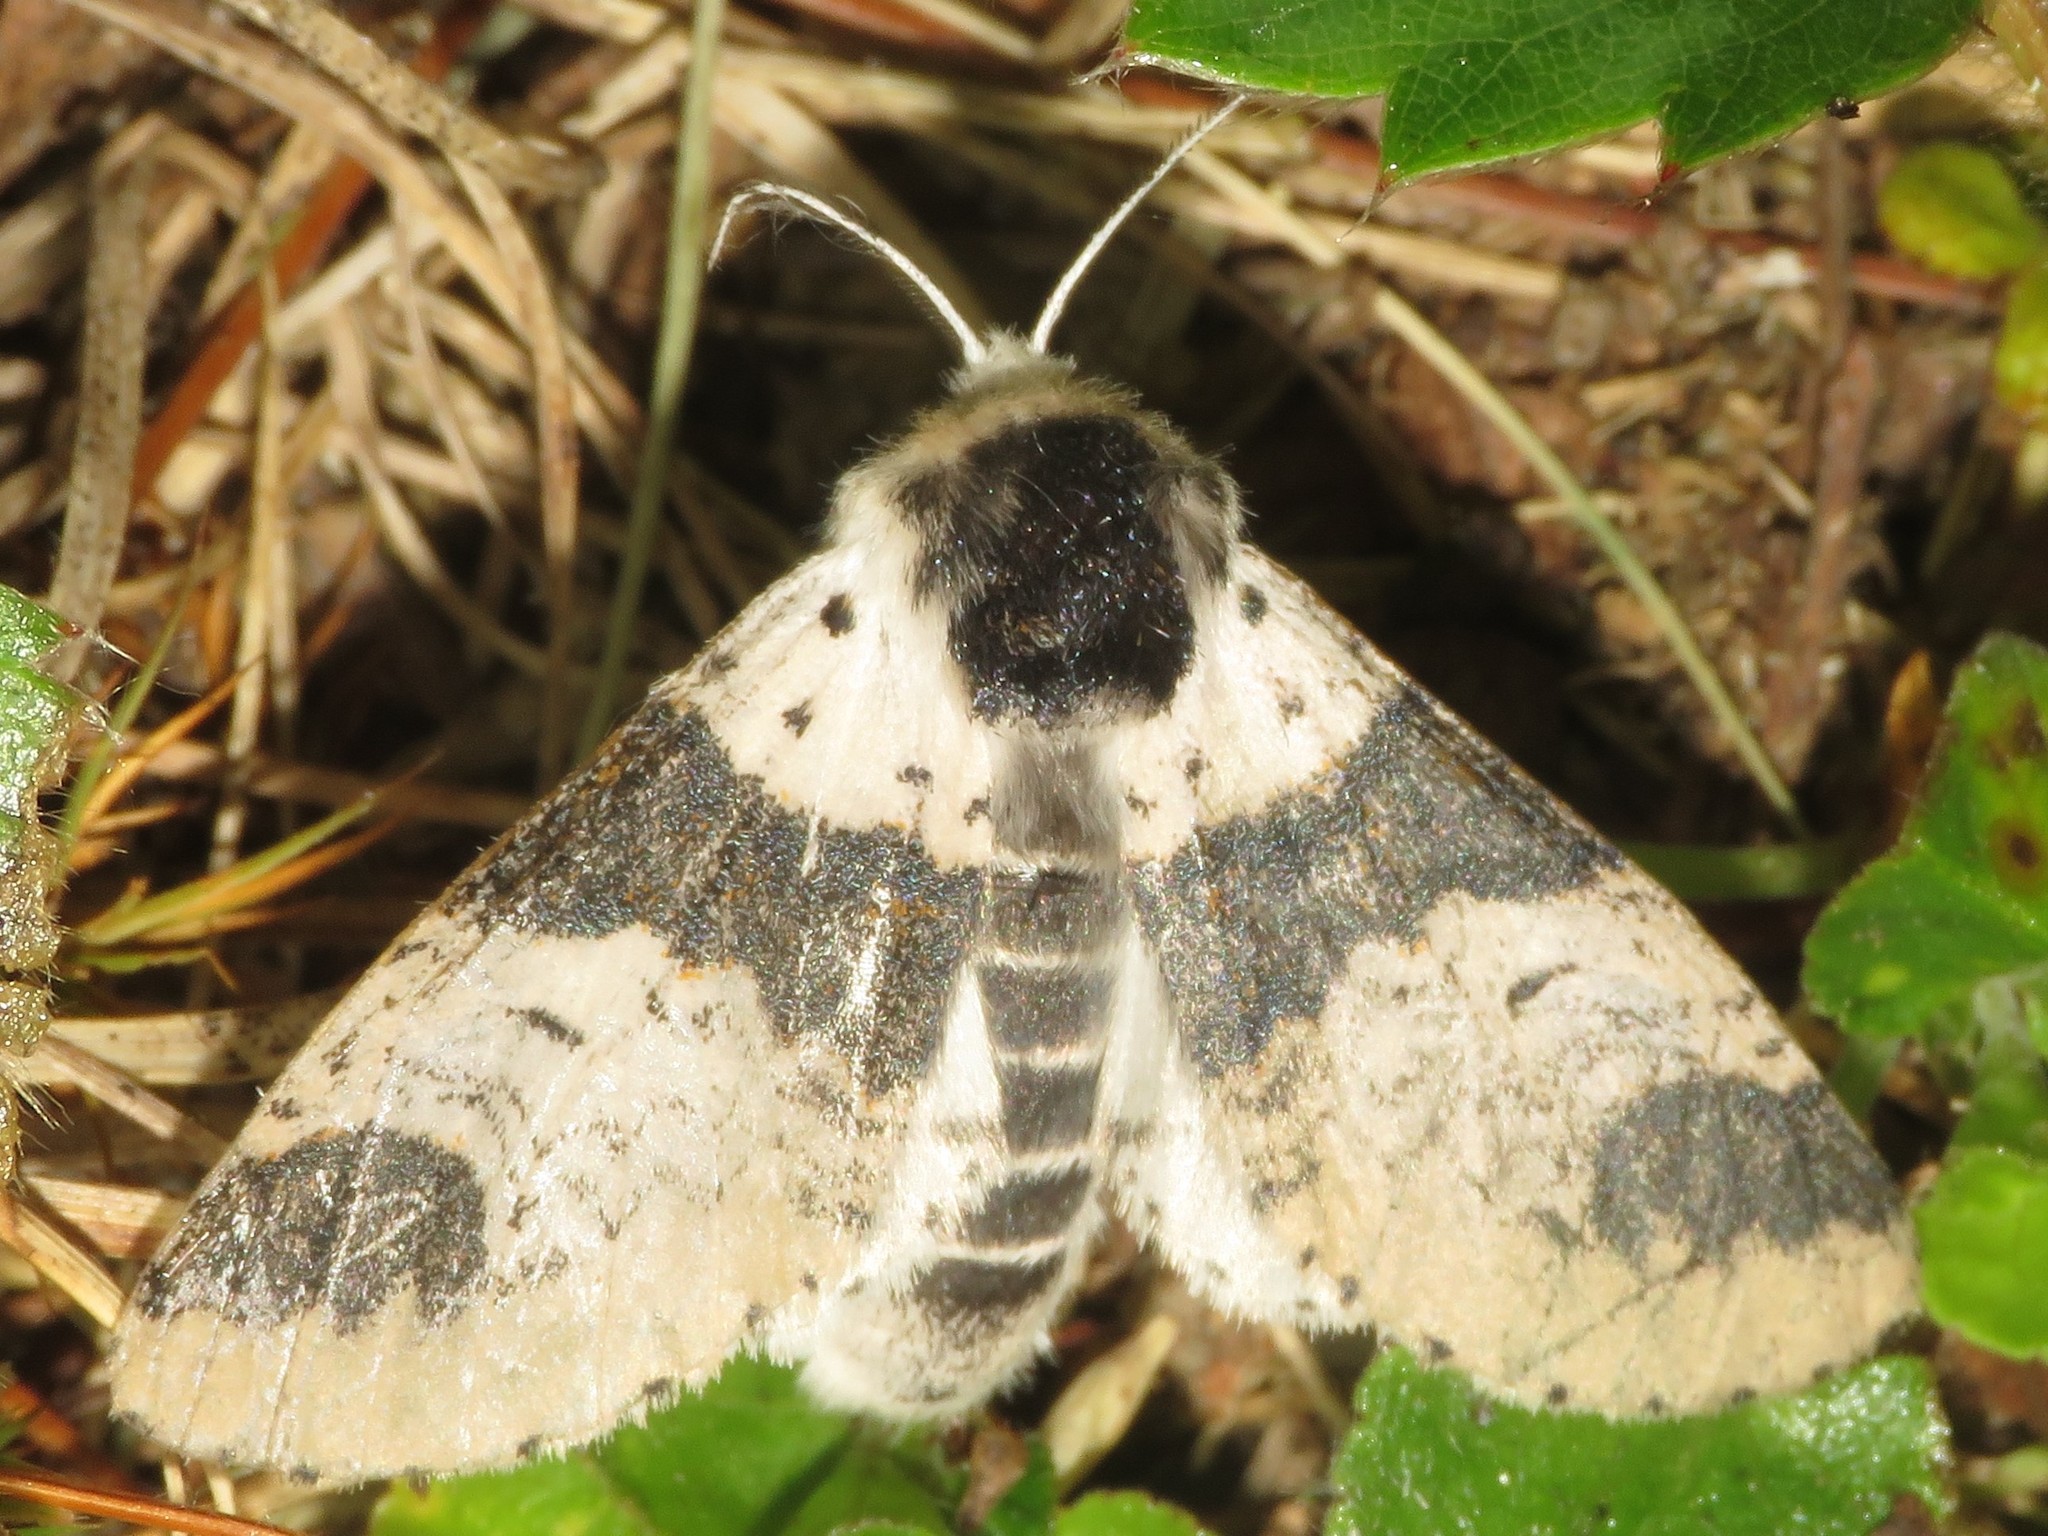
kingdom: Animalia
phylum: Arthropoda
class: Insecta
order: Lepidoptera
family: Notodontidae
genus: Furcula
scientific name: Furcula modesta
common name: Modest furcula moth
